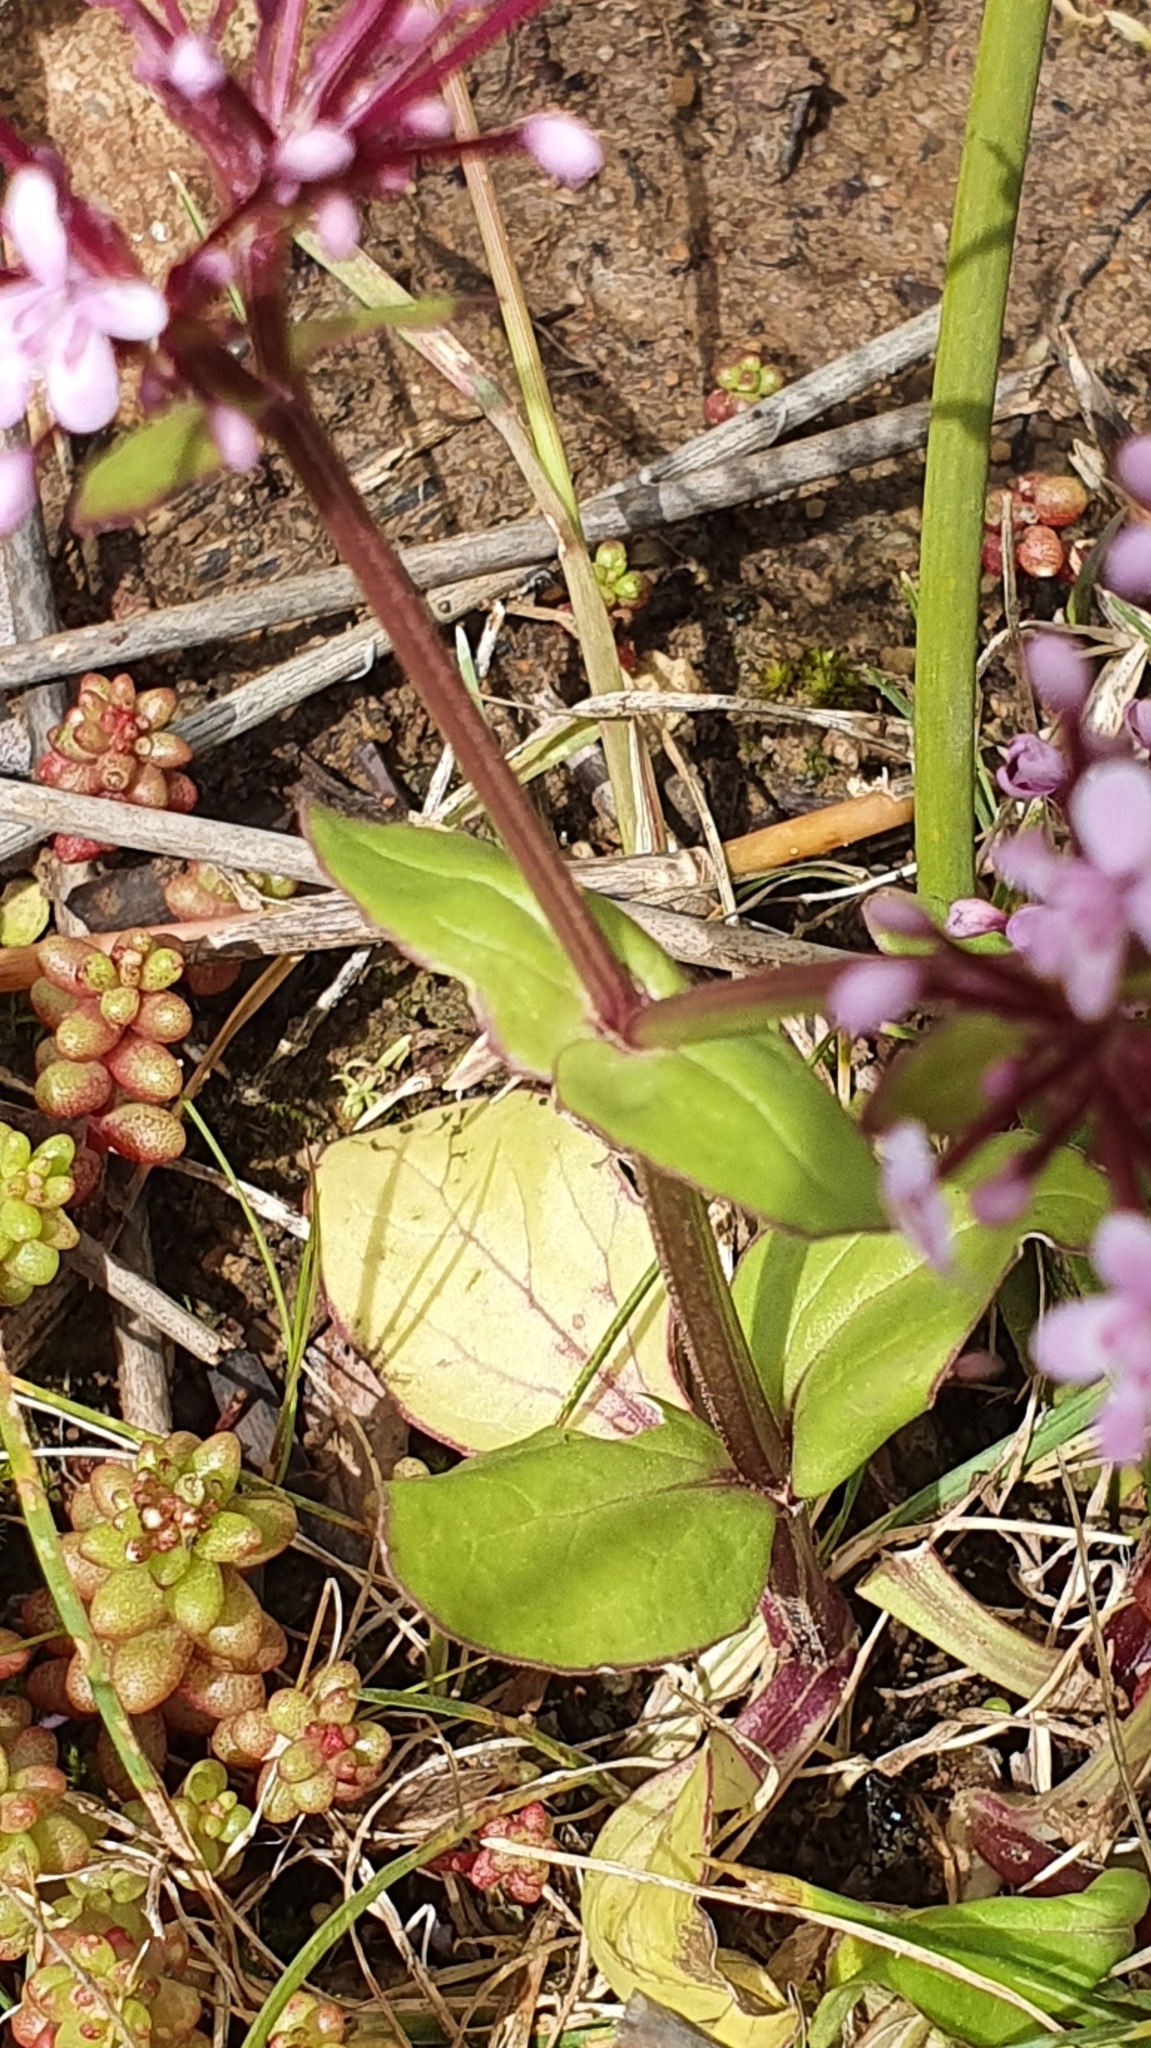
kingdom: Plantae
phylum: Tracheophyta
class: Magnoliopsida
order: Dipsacales
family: Caprifoliaceae
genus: Fedia
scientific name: Fedia graciliflora
